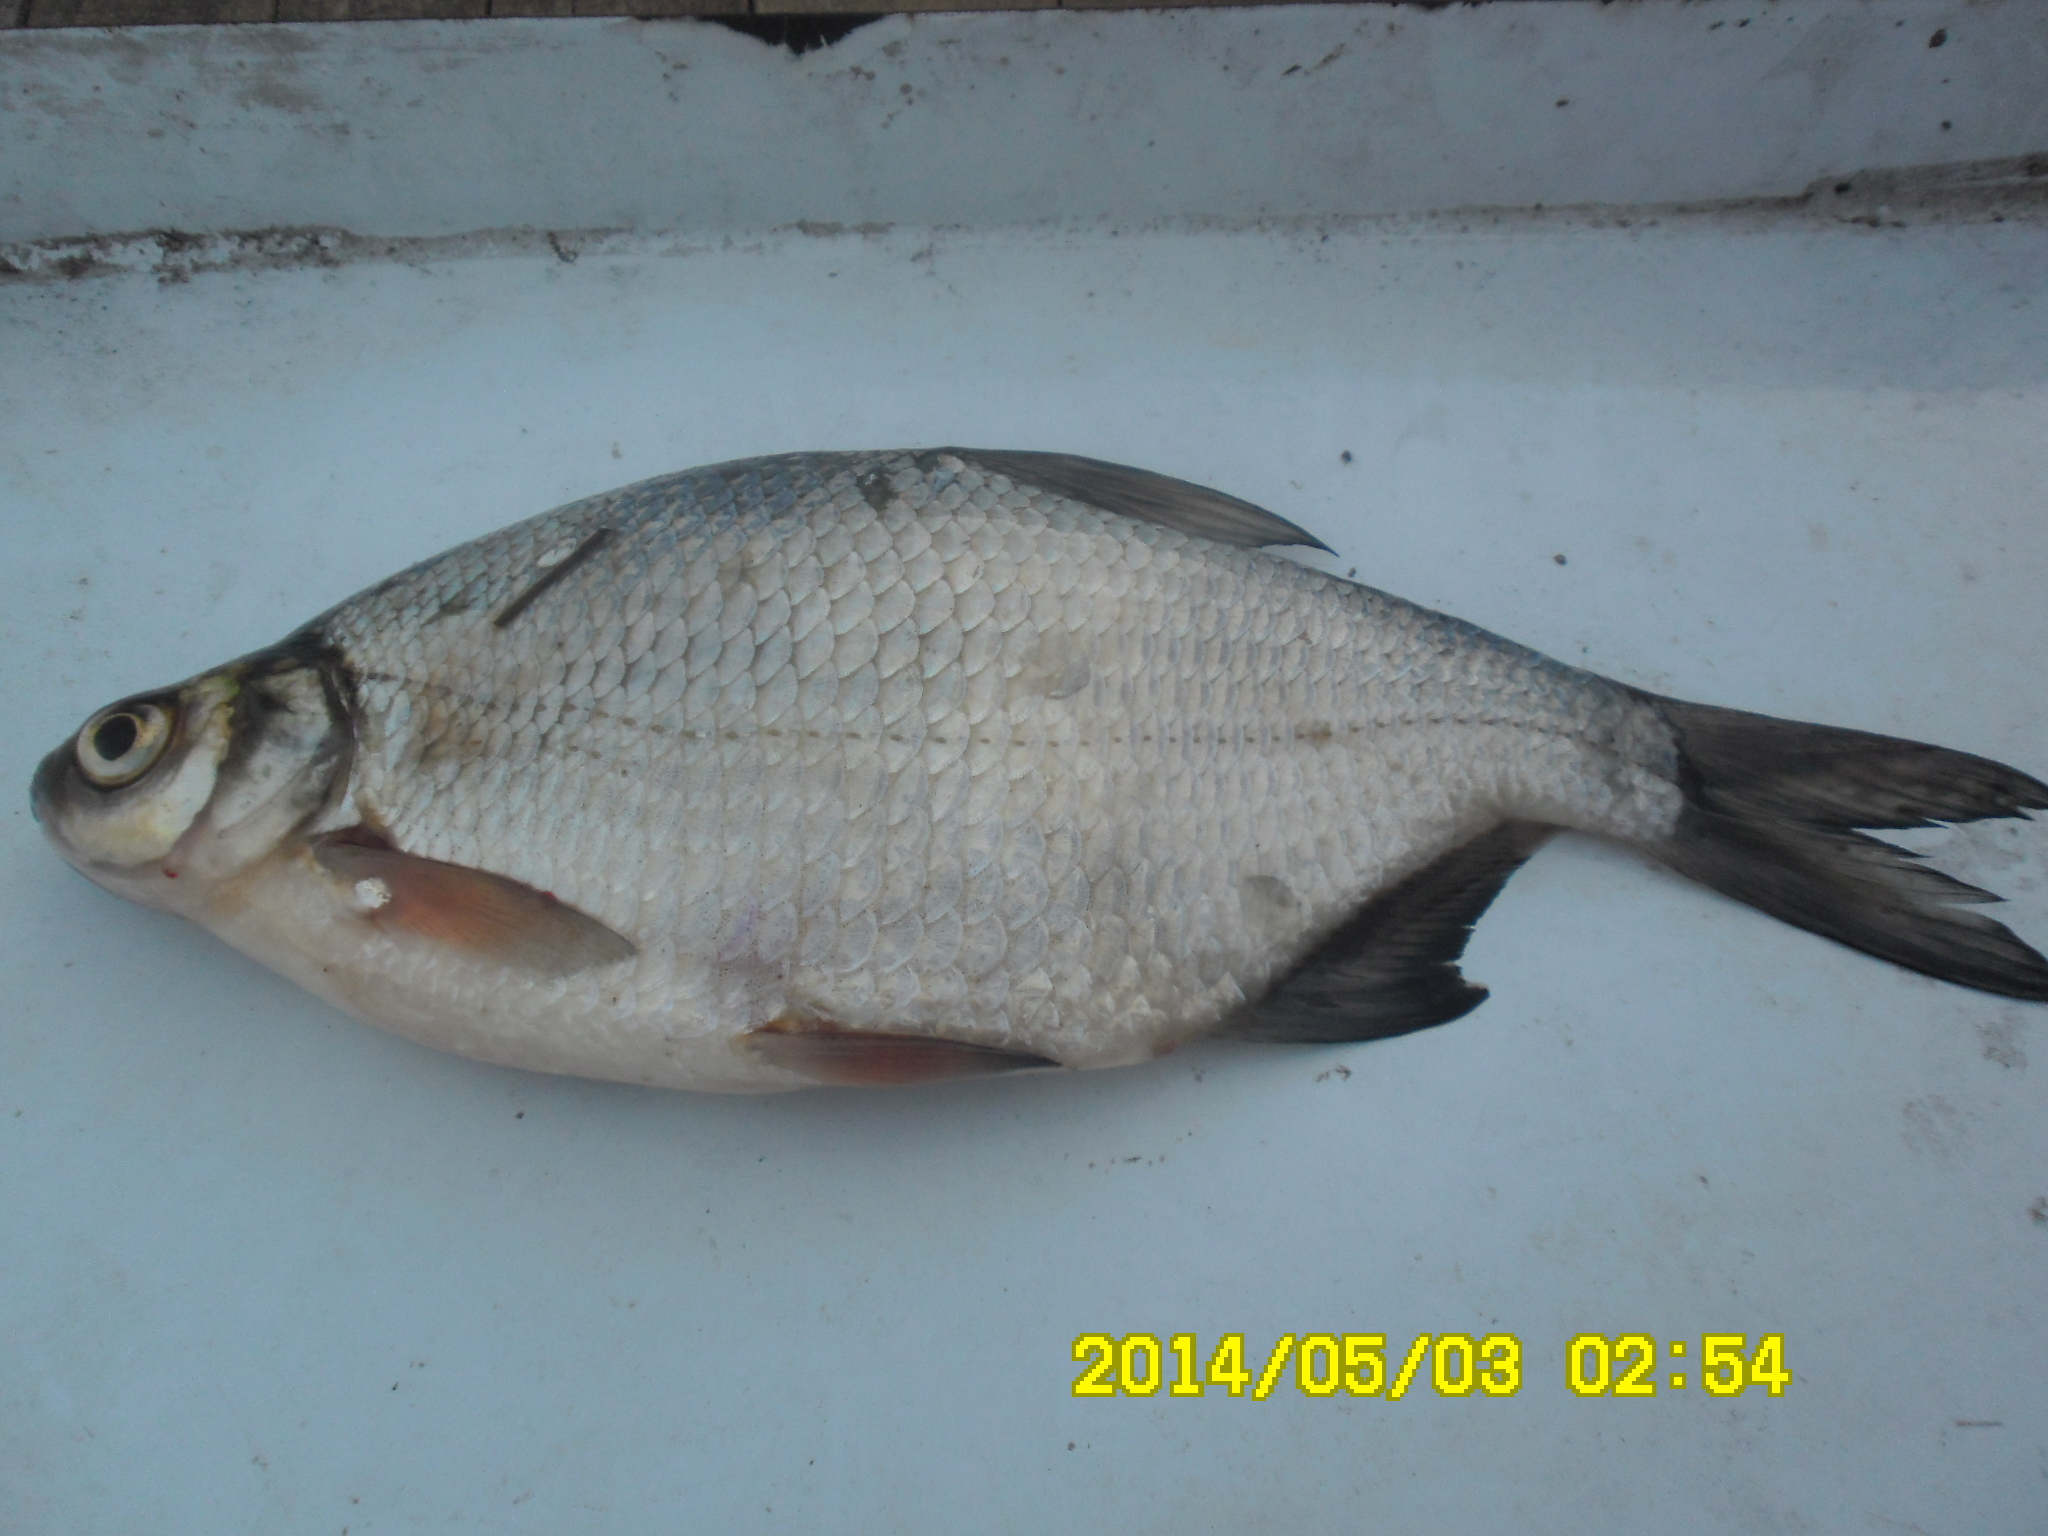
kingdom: Animalia
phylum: Chordata
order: Cypriniformes
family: Cyprinidae
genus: Blicca
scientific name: Blicca bjoerkna
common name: White bream
